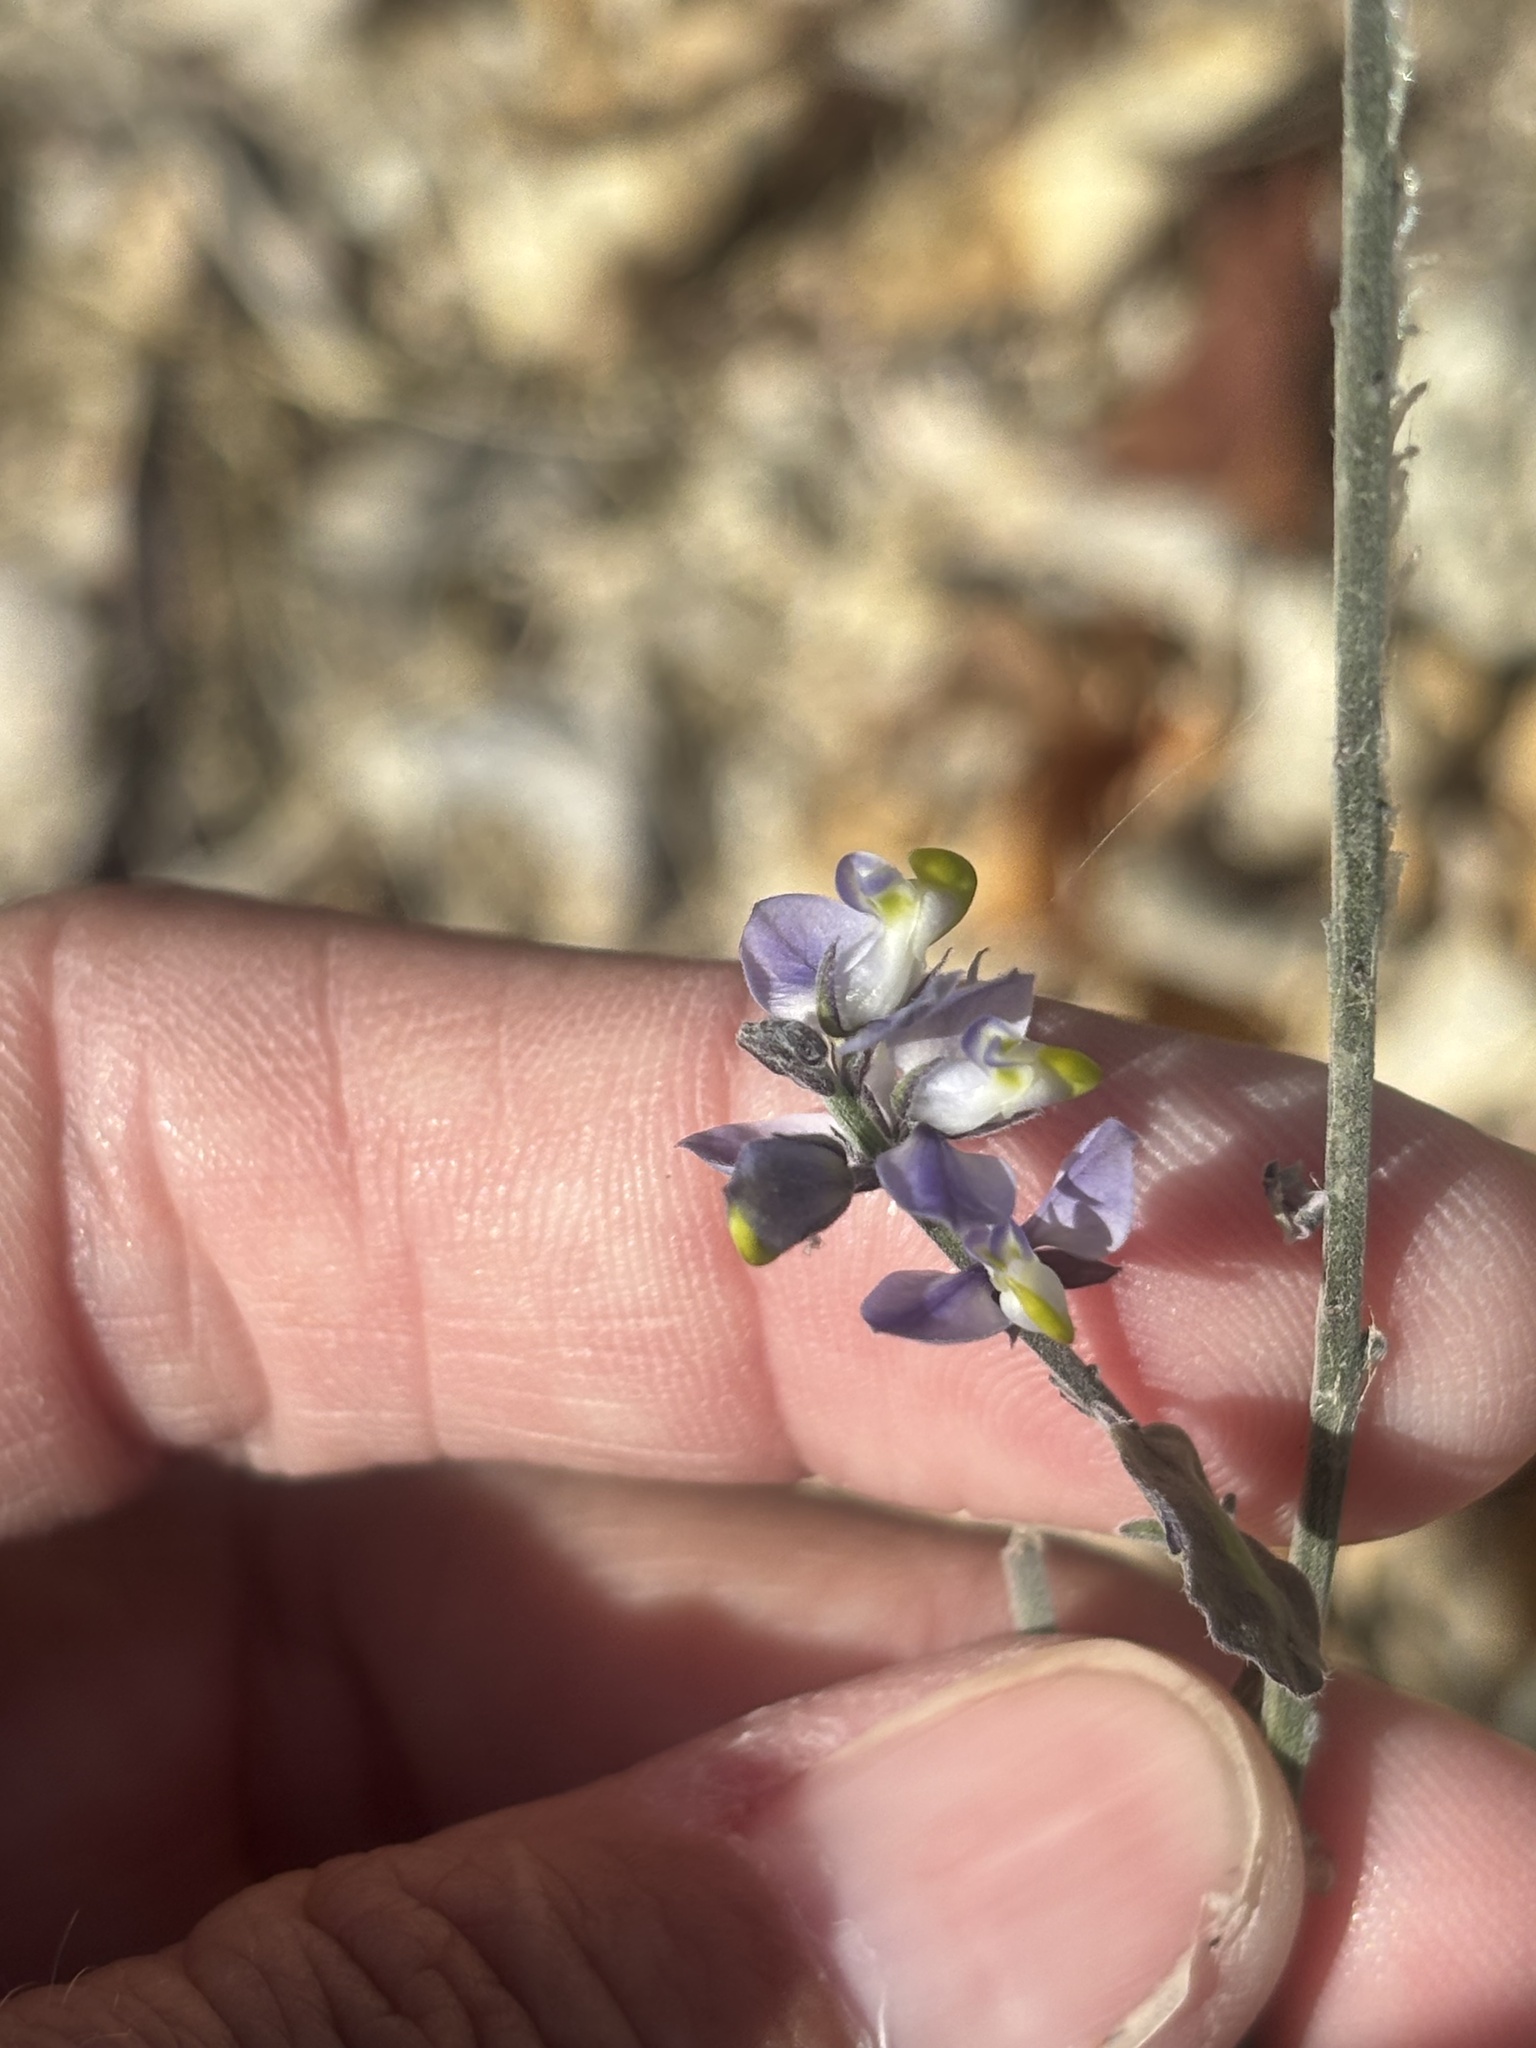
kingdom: Plantae
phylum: Tracheophyta
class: Magnoliopsida
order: Fabales
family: Polygalaceae
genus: Polygala
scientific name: Polygala magdalenae
